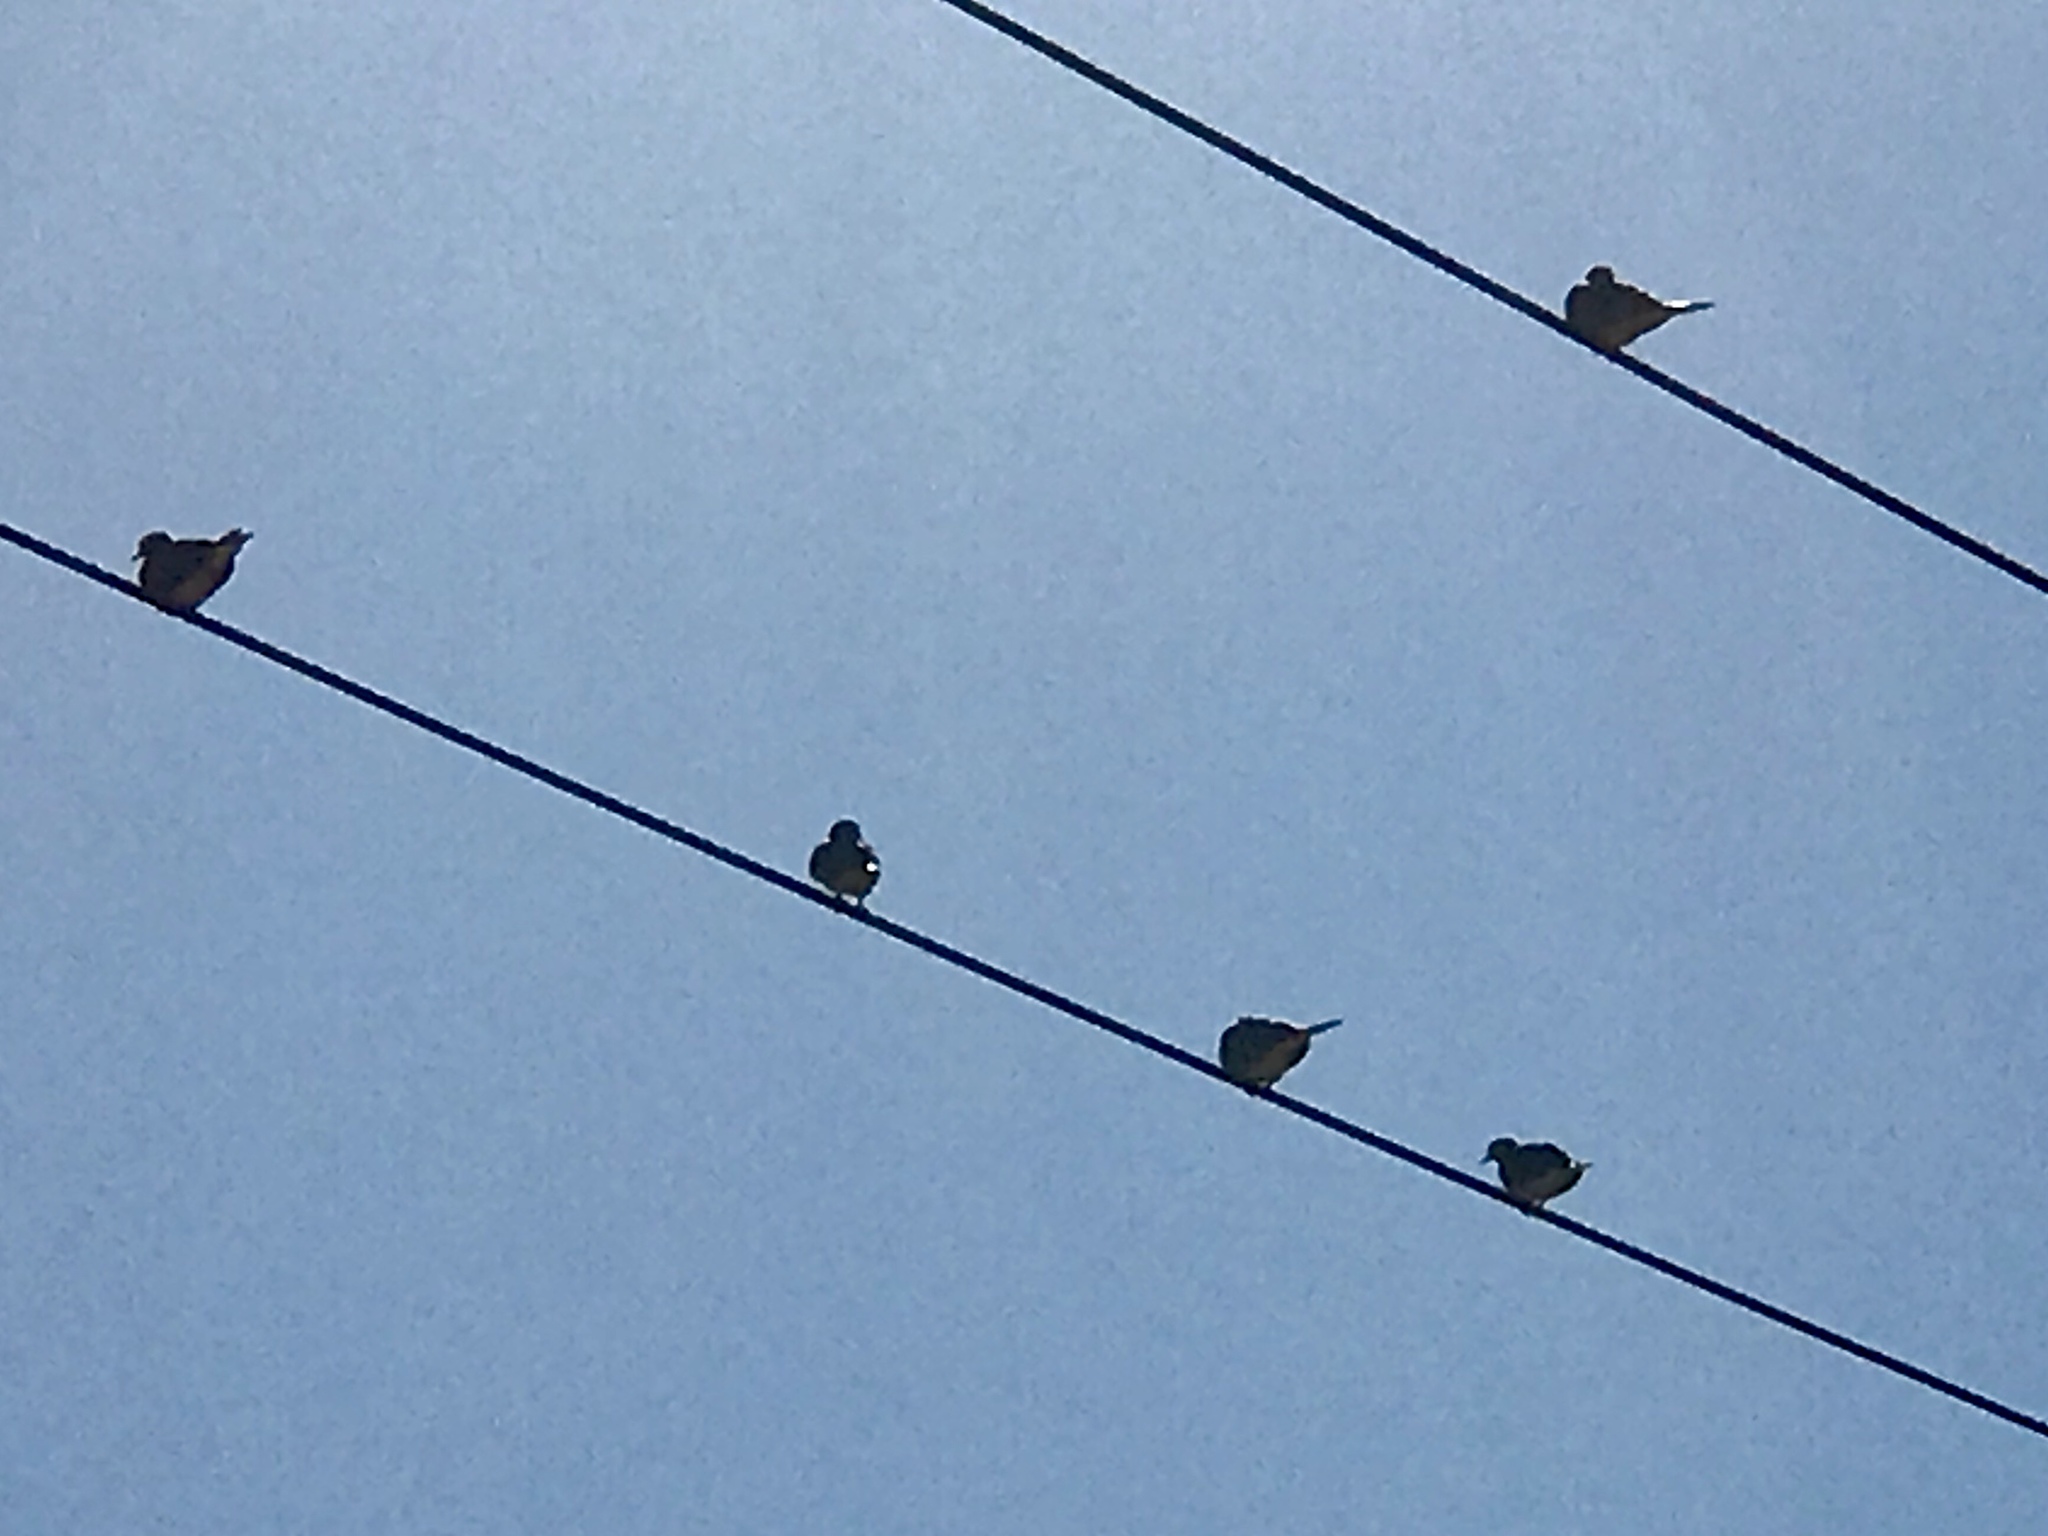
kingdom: Animalia
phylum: Chordata
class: Aves
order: Columbiformes
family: Columbidae
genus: Zenaida
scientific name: Zenaida macroura
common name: Mourning dove
